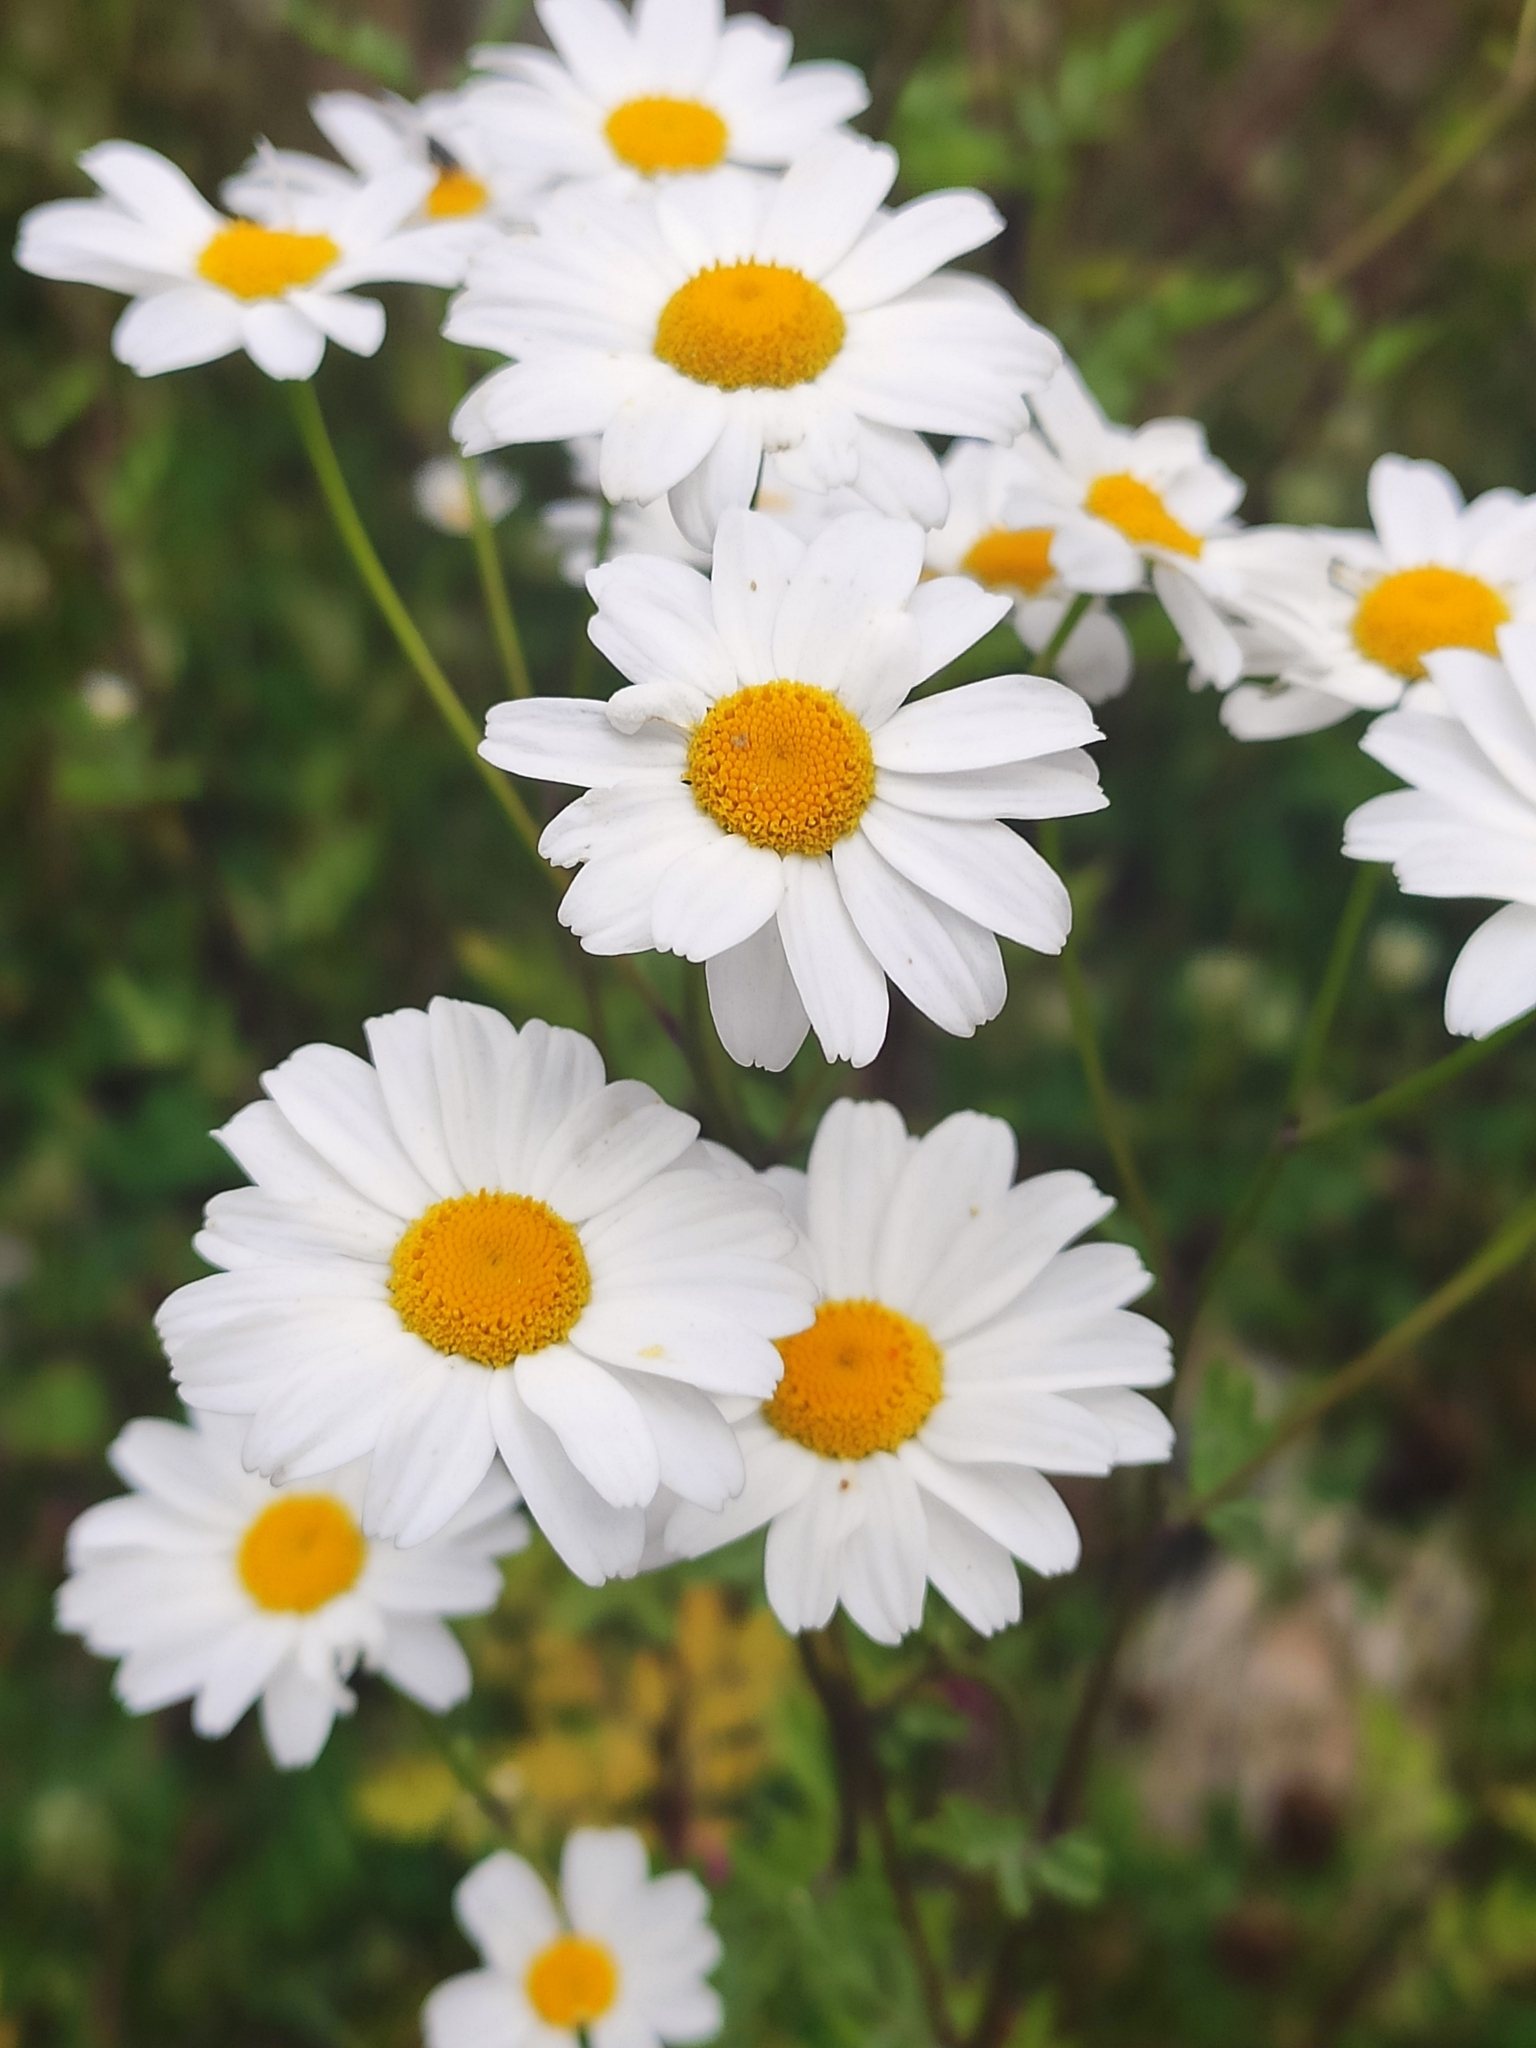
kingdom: Plantae
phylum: Tracheophyta
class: Magnoliopsida
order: Asterales
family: Asteraceae
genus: Tanacetum
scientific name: Tanacetum partheniifolium
